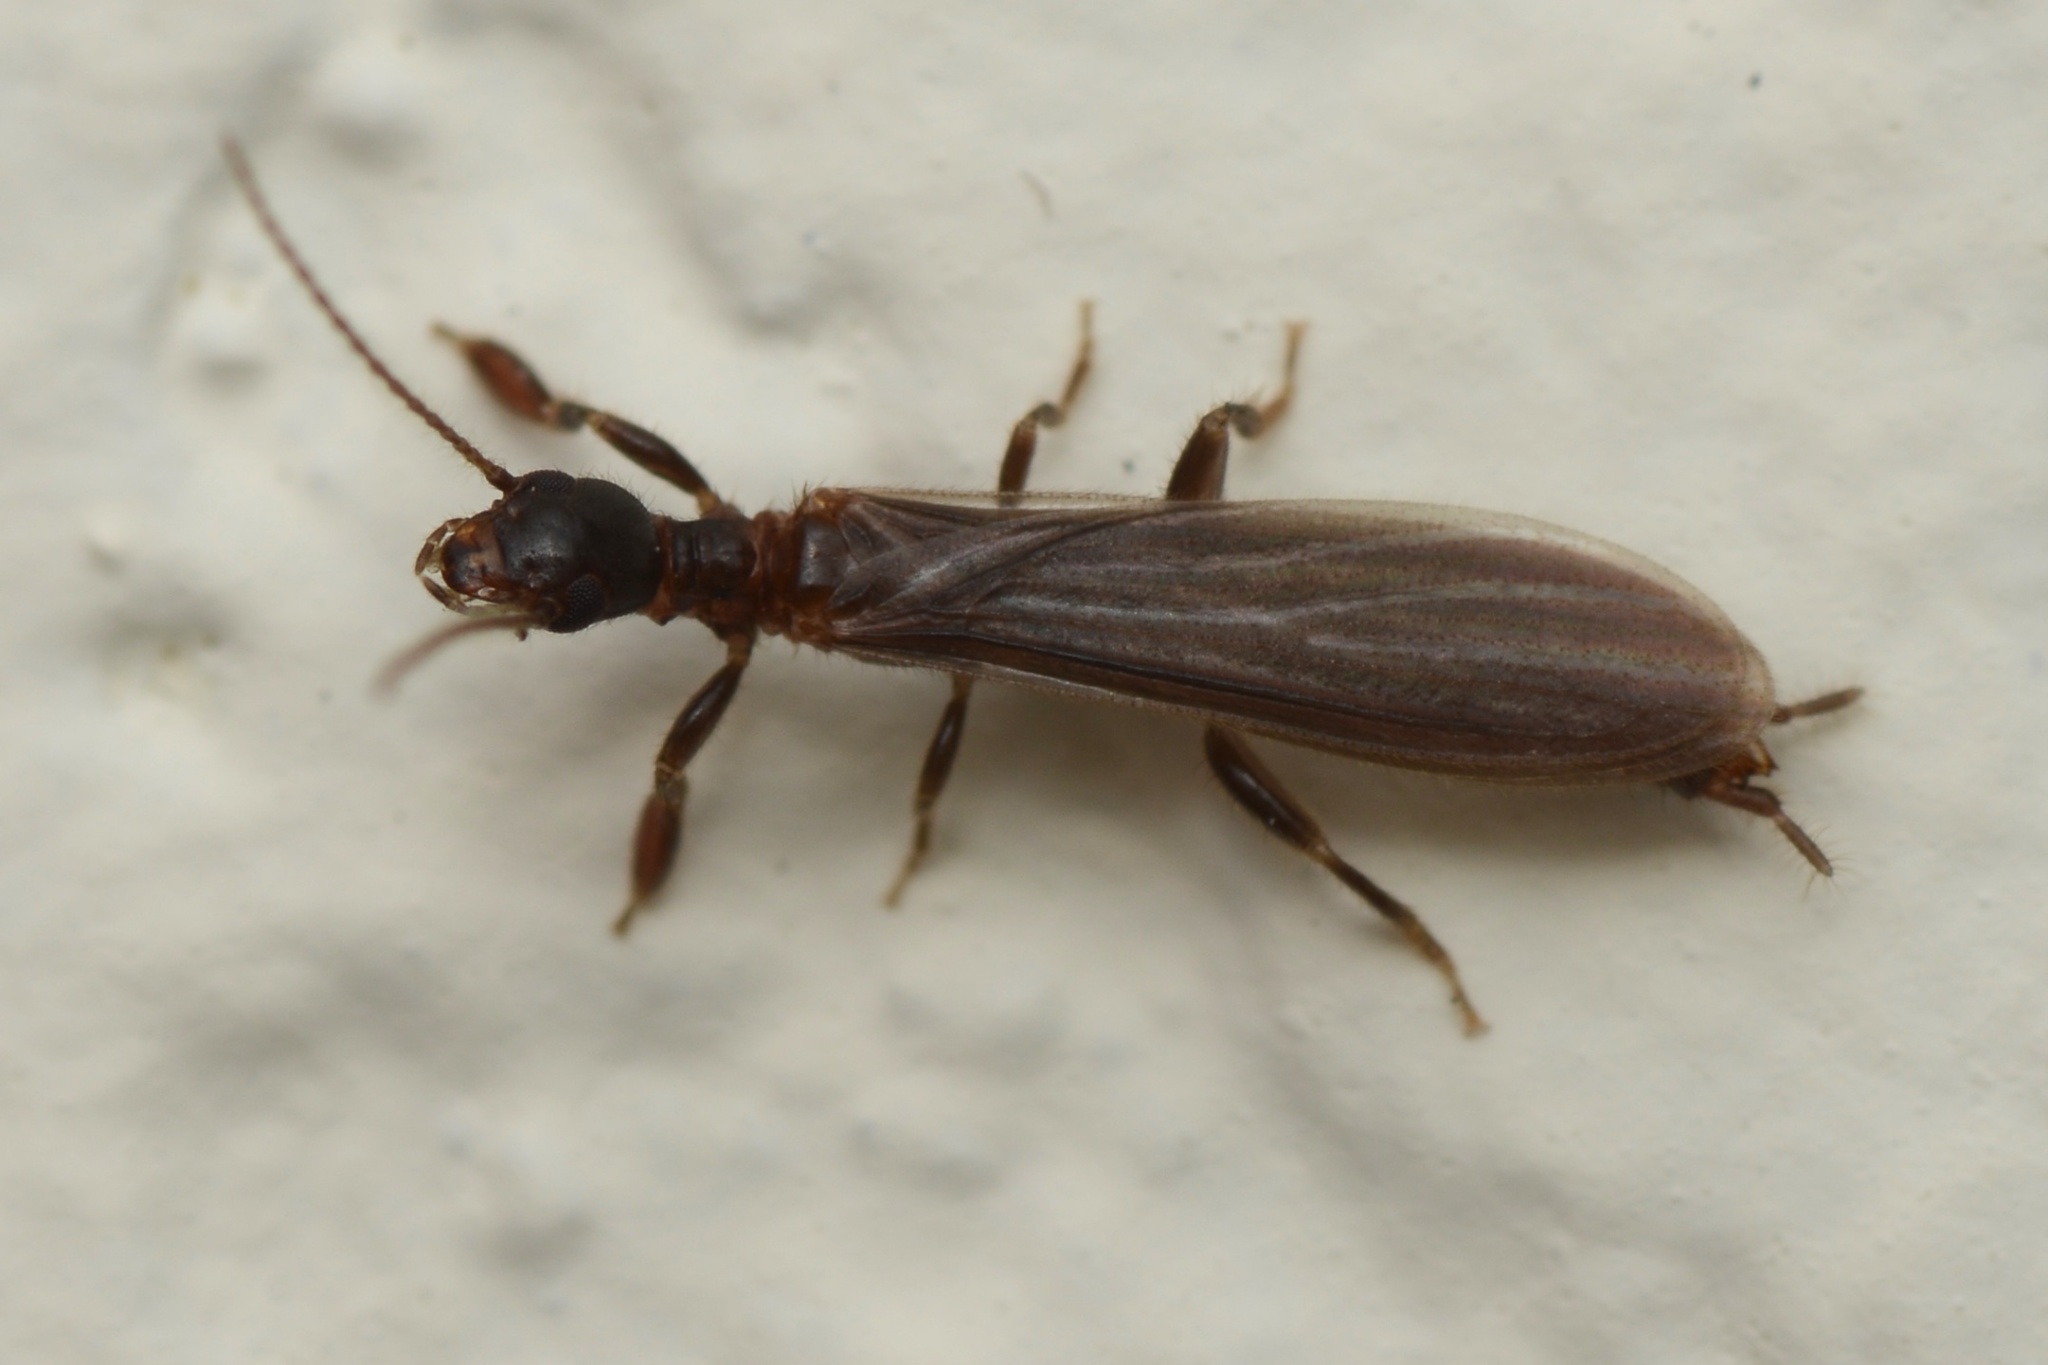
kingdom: Animalia
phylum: Arthropoda
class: Insecta
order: Embioptera
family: Oligotomidae
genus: Oligotoma
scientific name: Oligotoma nigra
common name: Black webspinner
